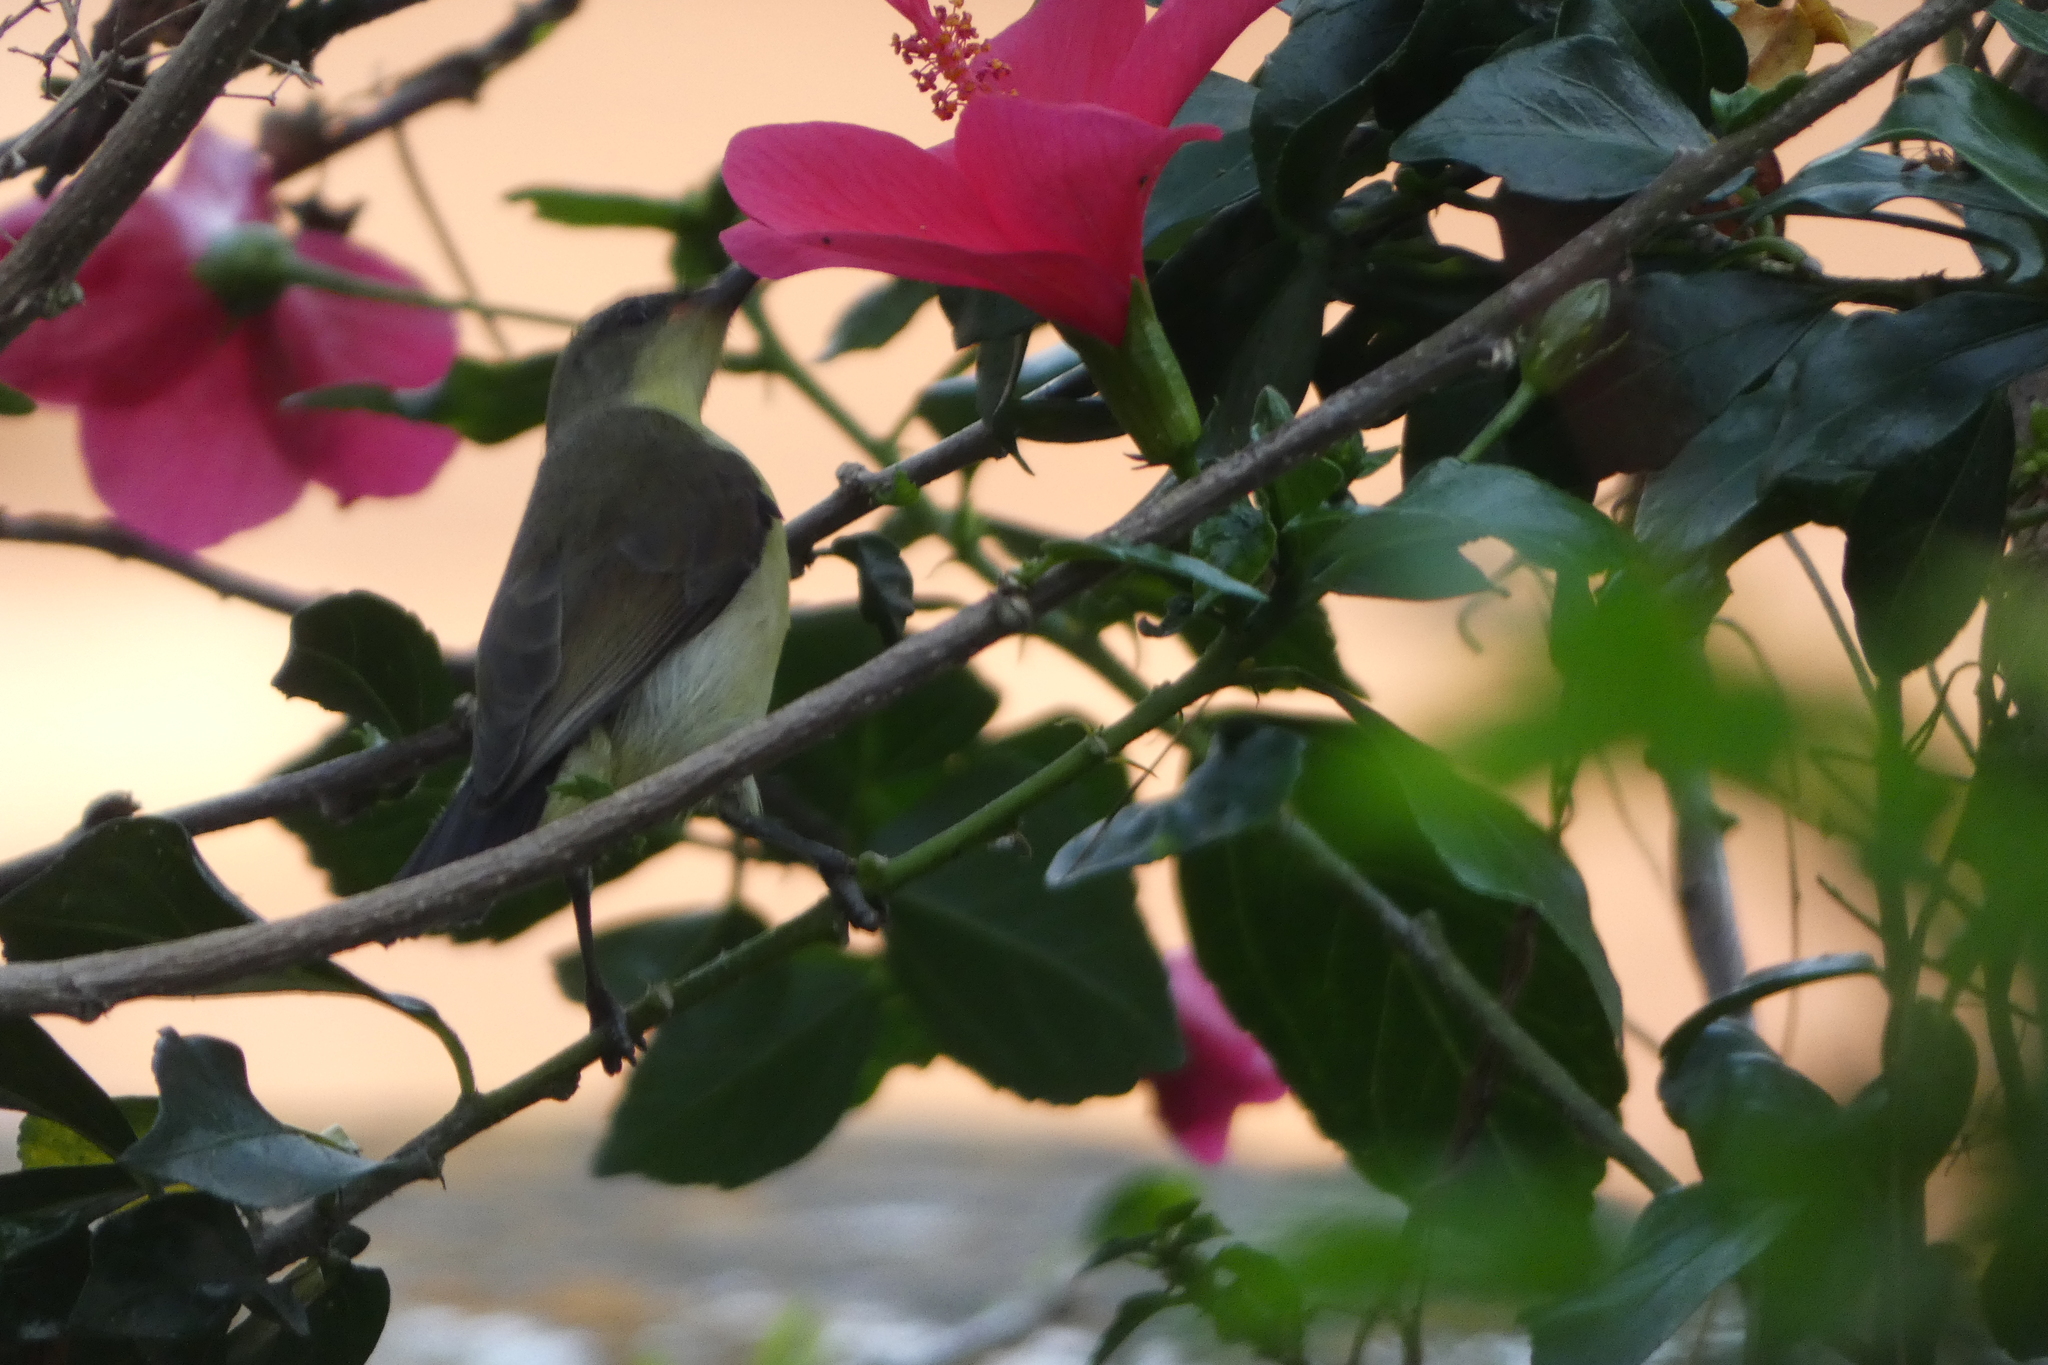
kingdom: Animalia
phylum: Chordata
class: Aves
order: Passeriformes
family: Nectariniidae
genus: Leptocoma
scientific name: Leptocoma zeylonica
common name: Purple-rumped sunbird
